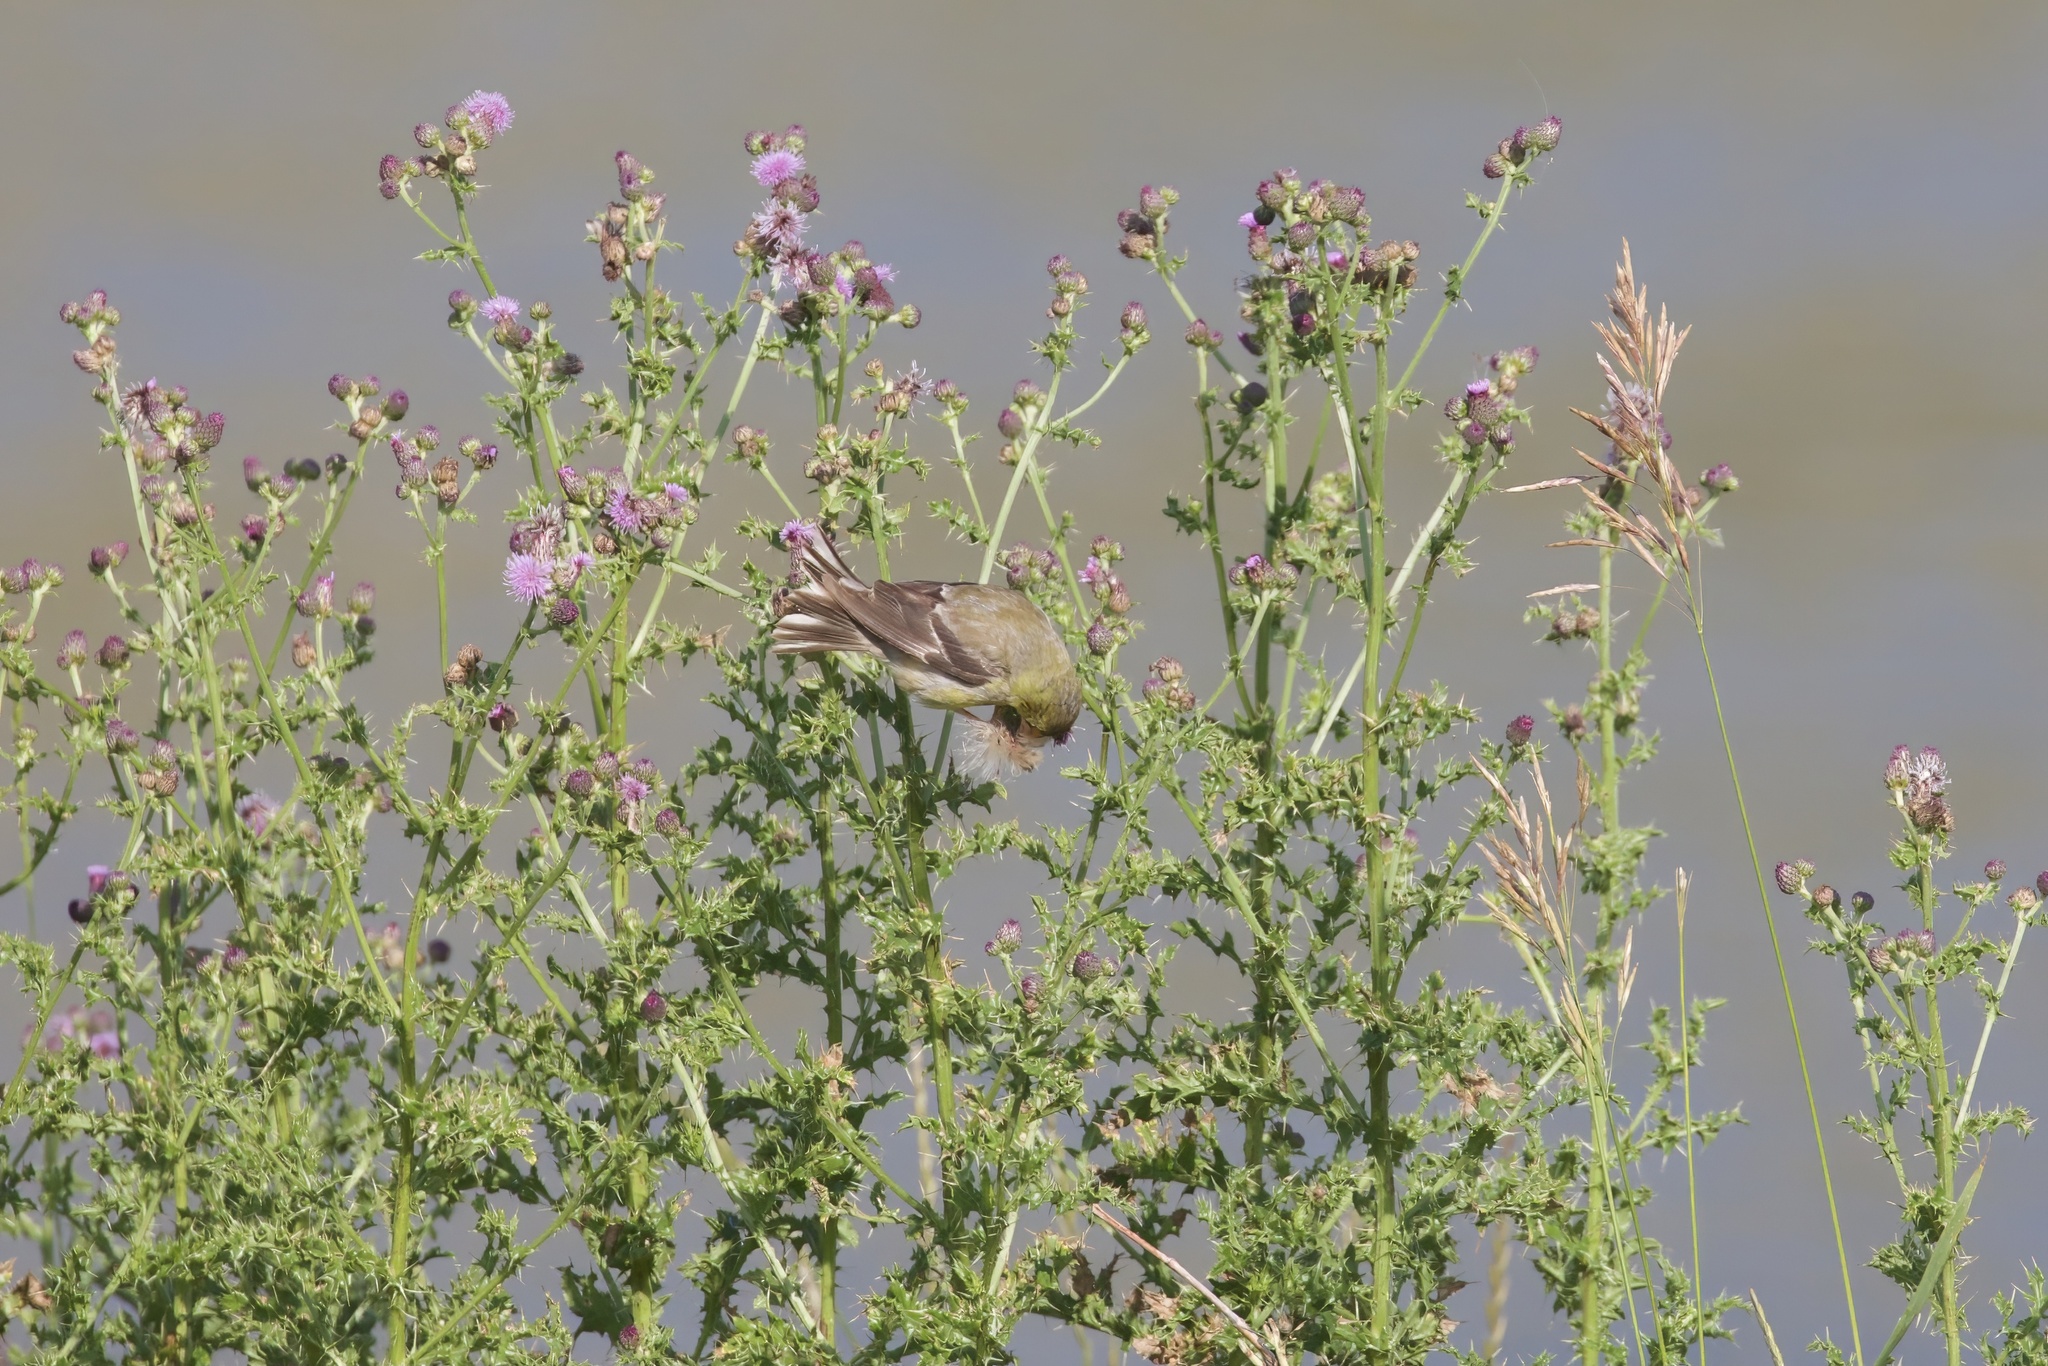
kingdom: Animalia
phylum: Chordata
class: Aves
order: Passeriformes
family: Fringillidae
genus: Spinus
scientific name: Spinus tristis
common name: American goldfinch
